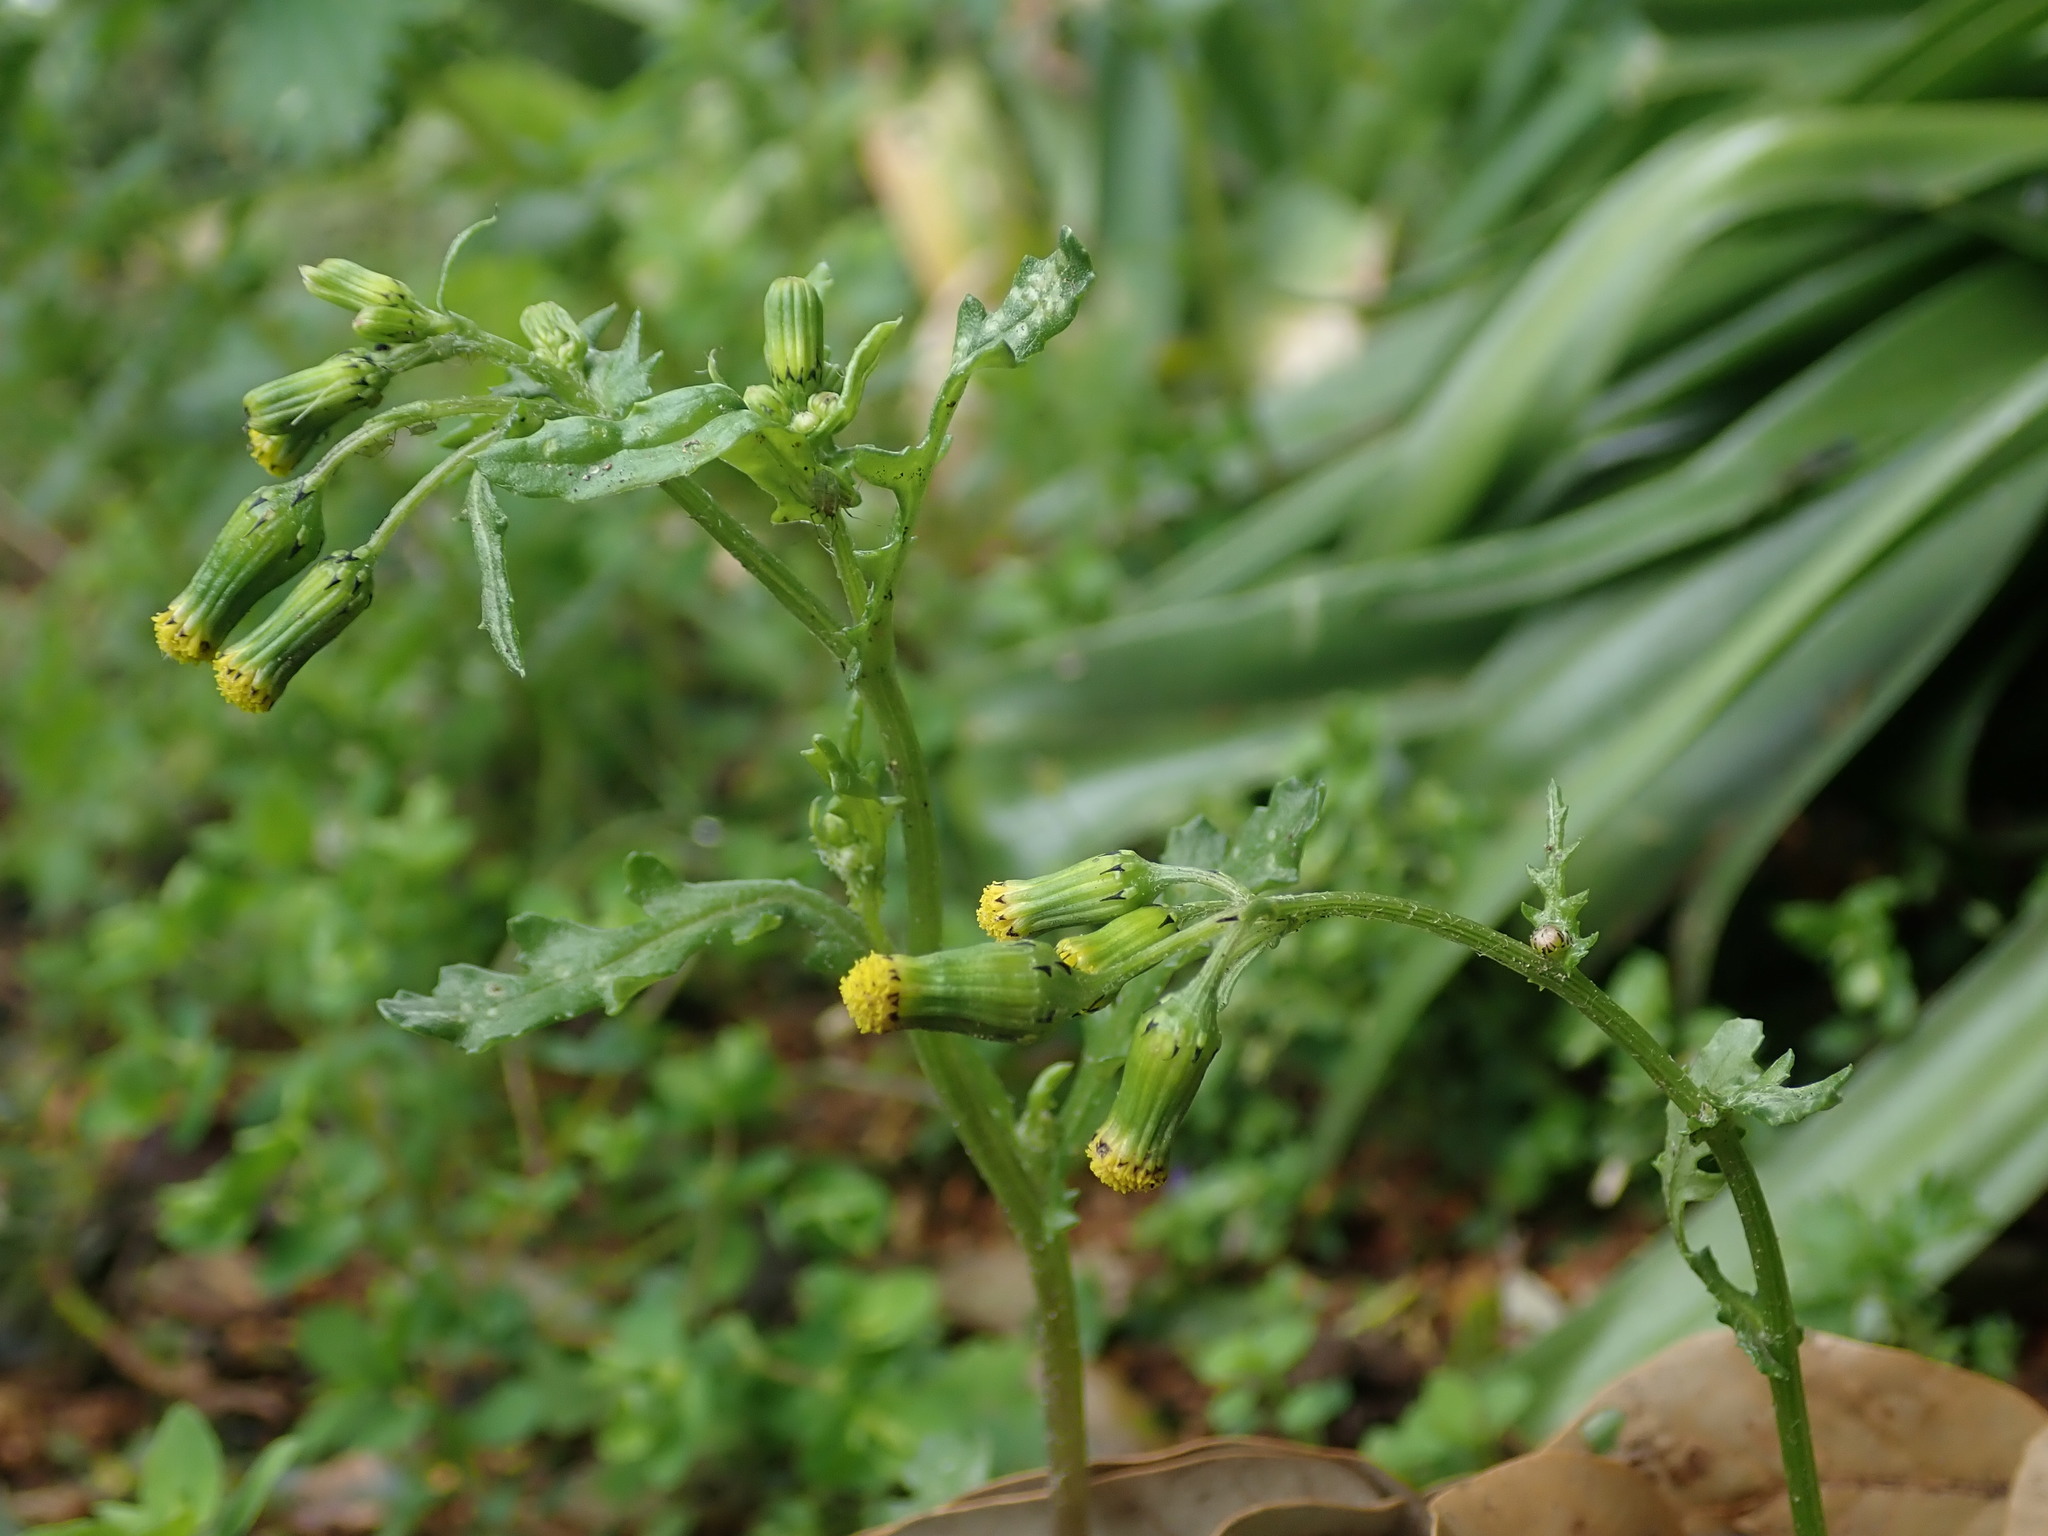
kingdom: Plantae
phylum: Tracheophyta
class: Magnoliopsida
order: Asterales
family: Asteraceae
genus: Senecio
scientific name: Senecio vulgaris
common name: Old-man-in-the-spring
